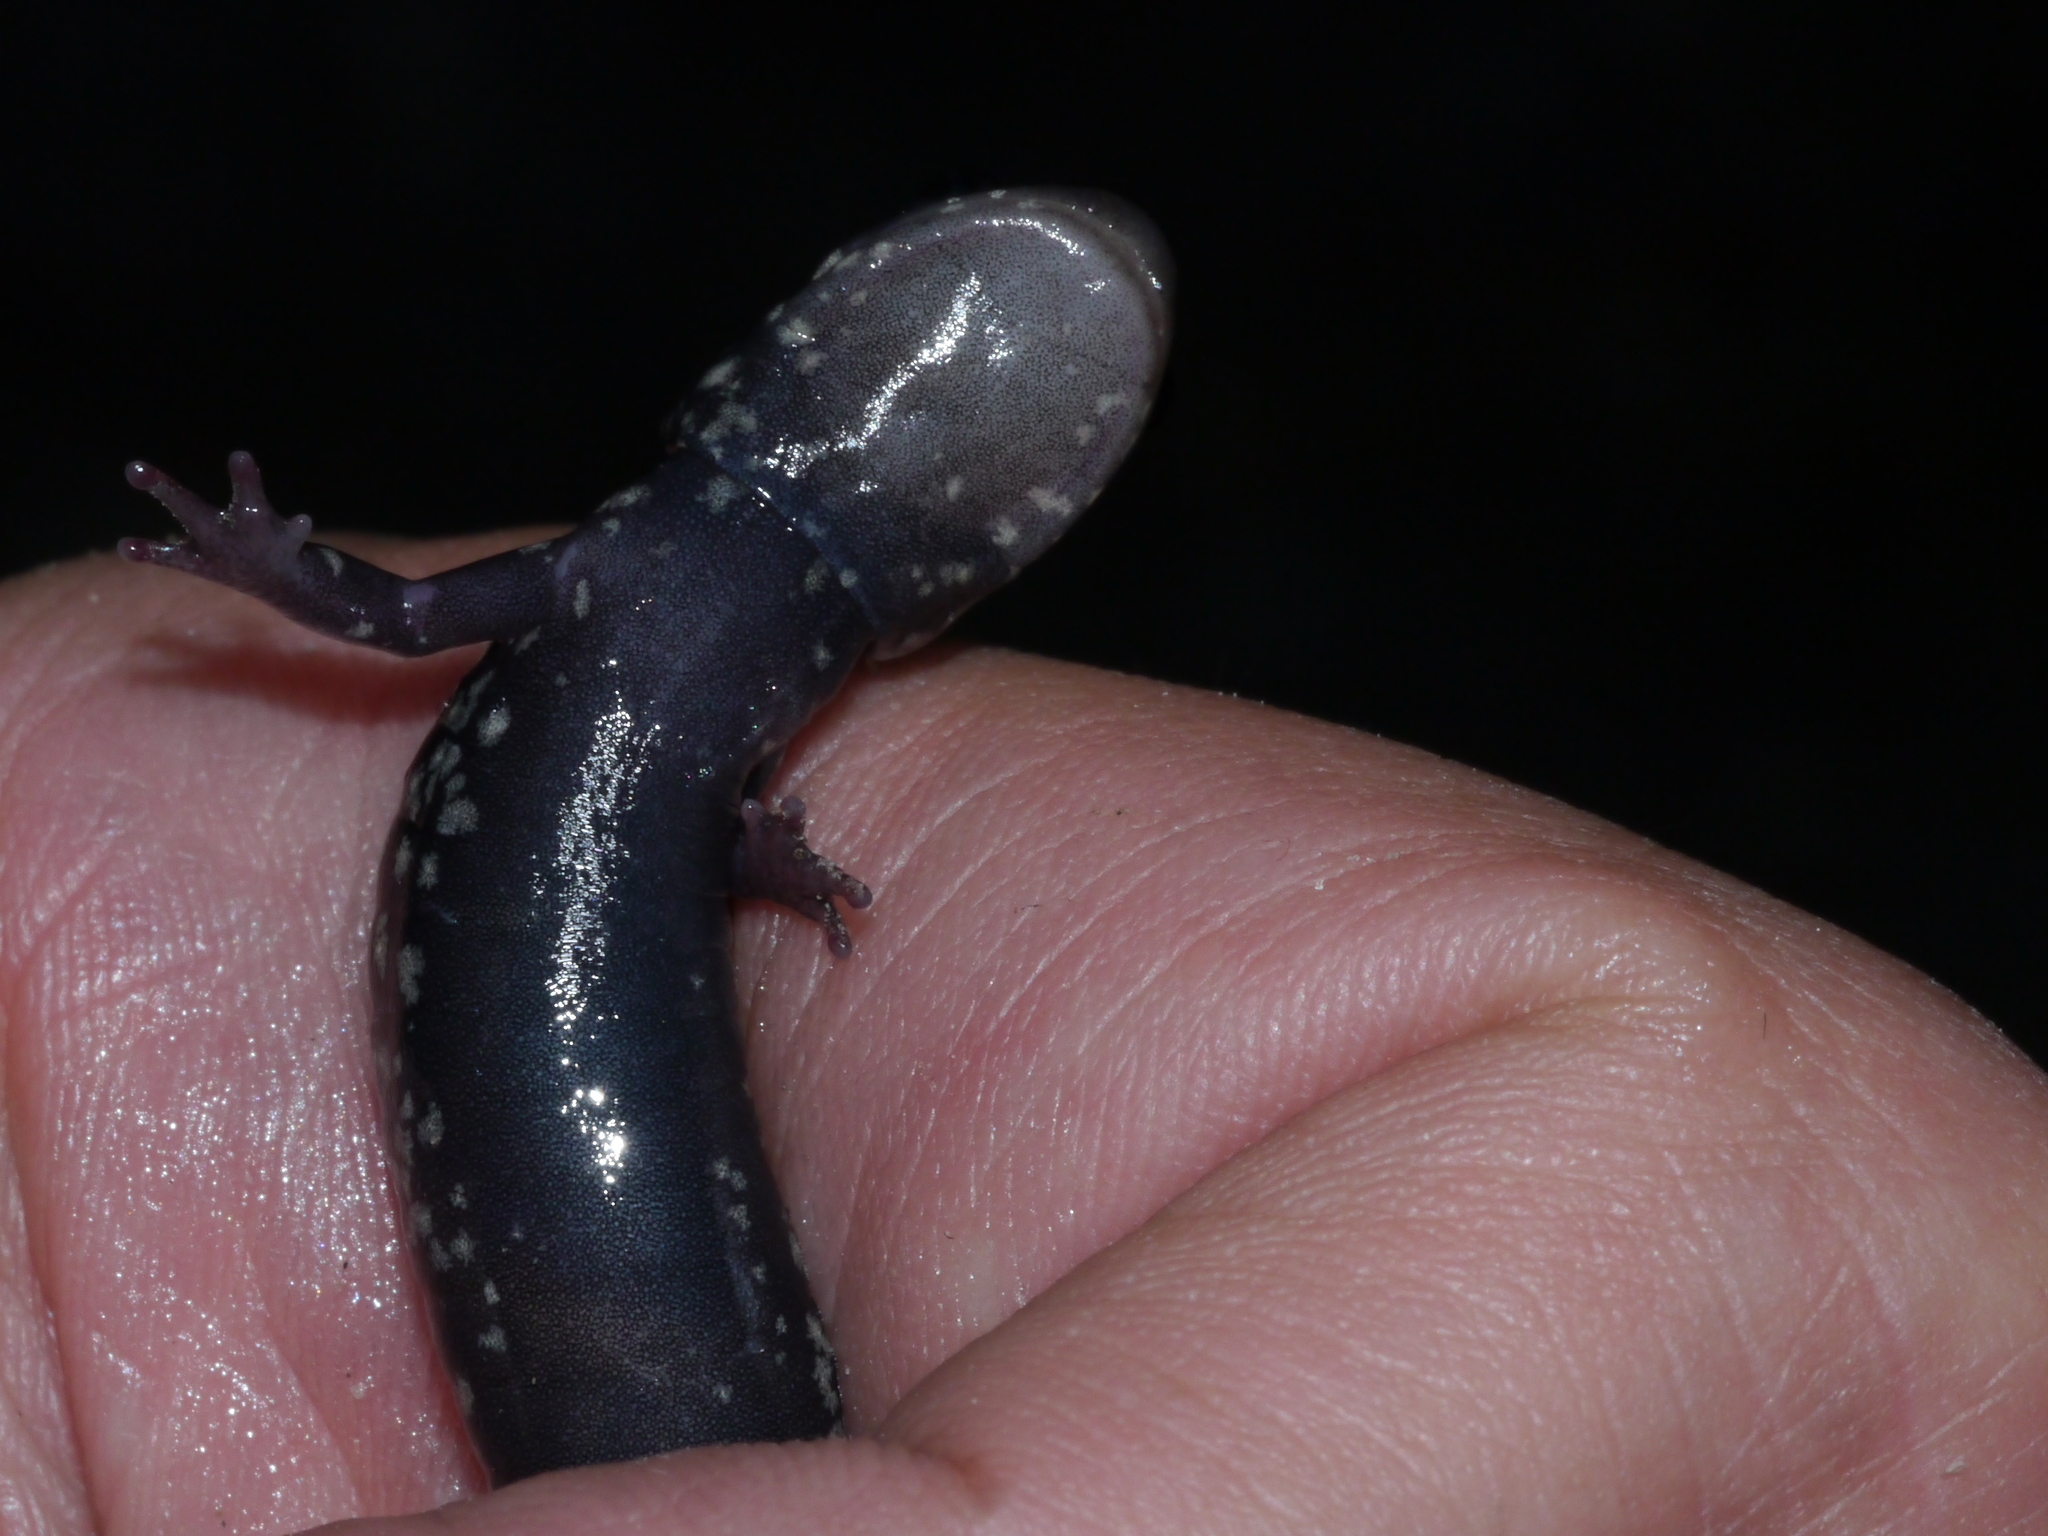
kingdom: Animalia
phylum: Chordata
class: Amphibia
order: Caudata
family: Plethodontidae
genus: Plethodon
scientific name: Plethodon glutinosus
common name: Northern slimy salamander
